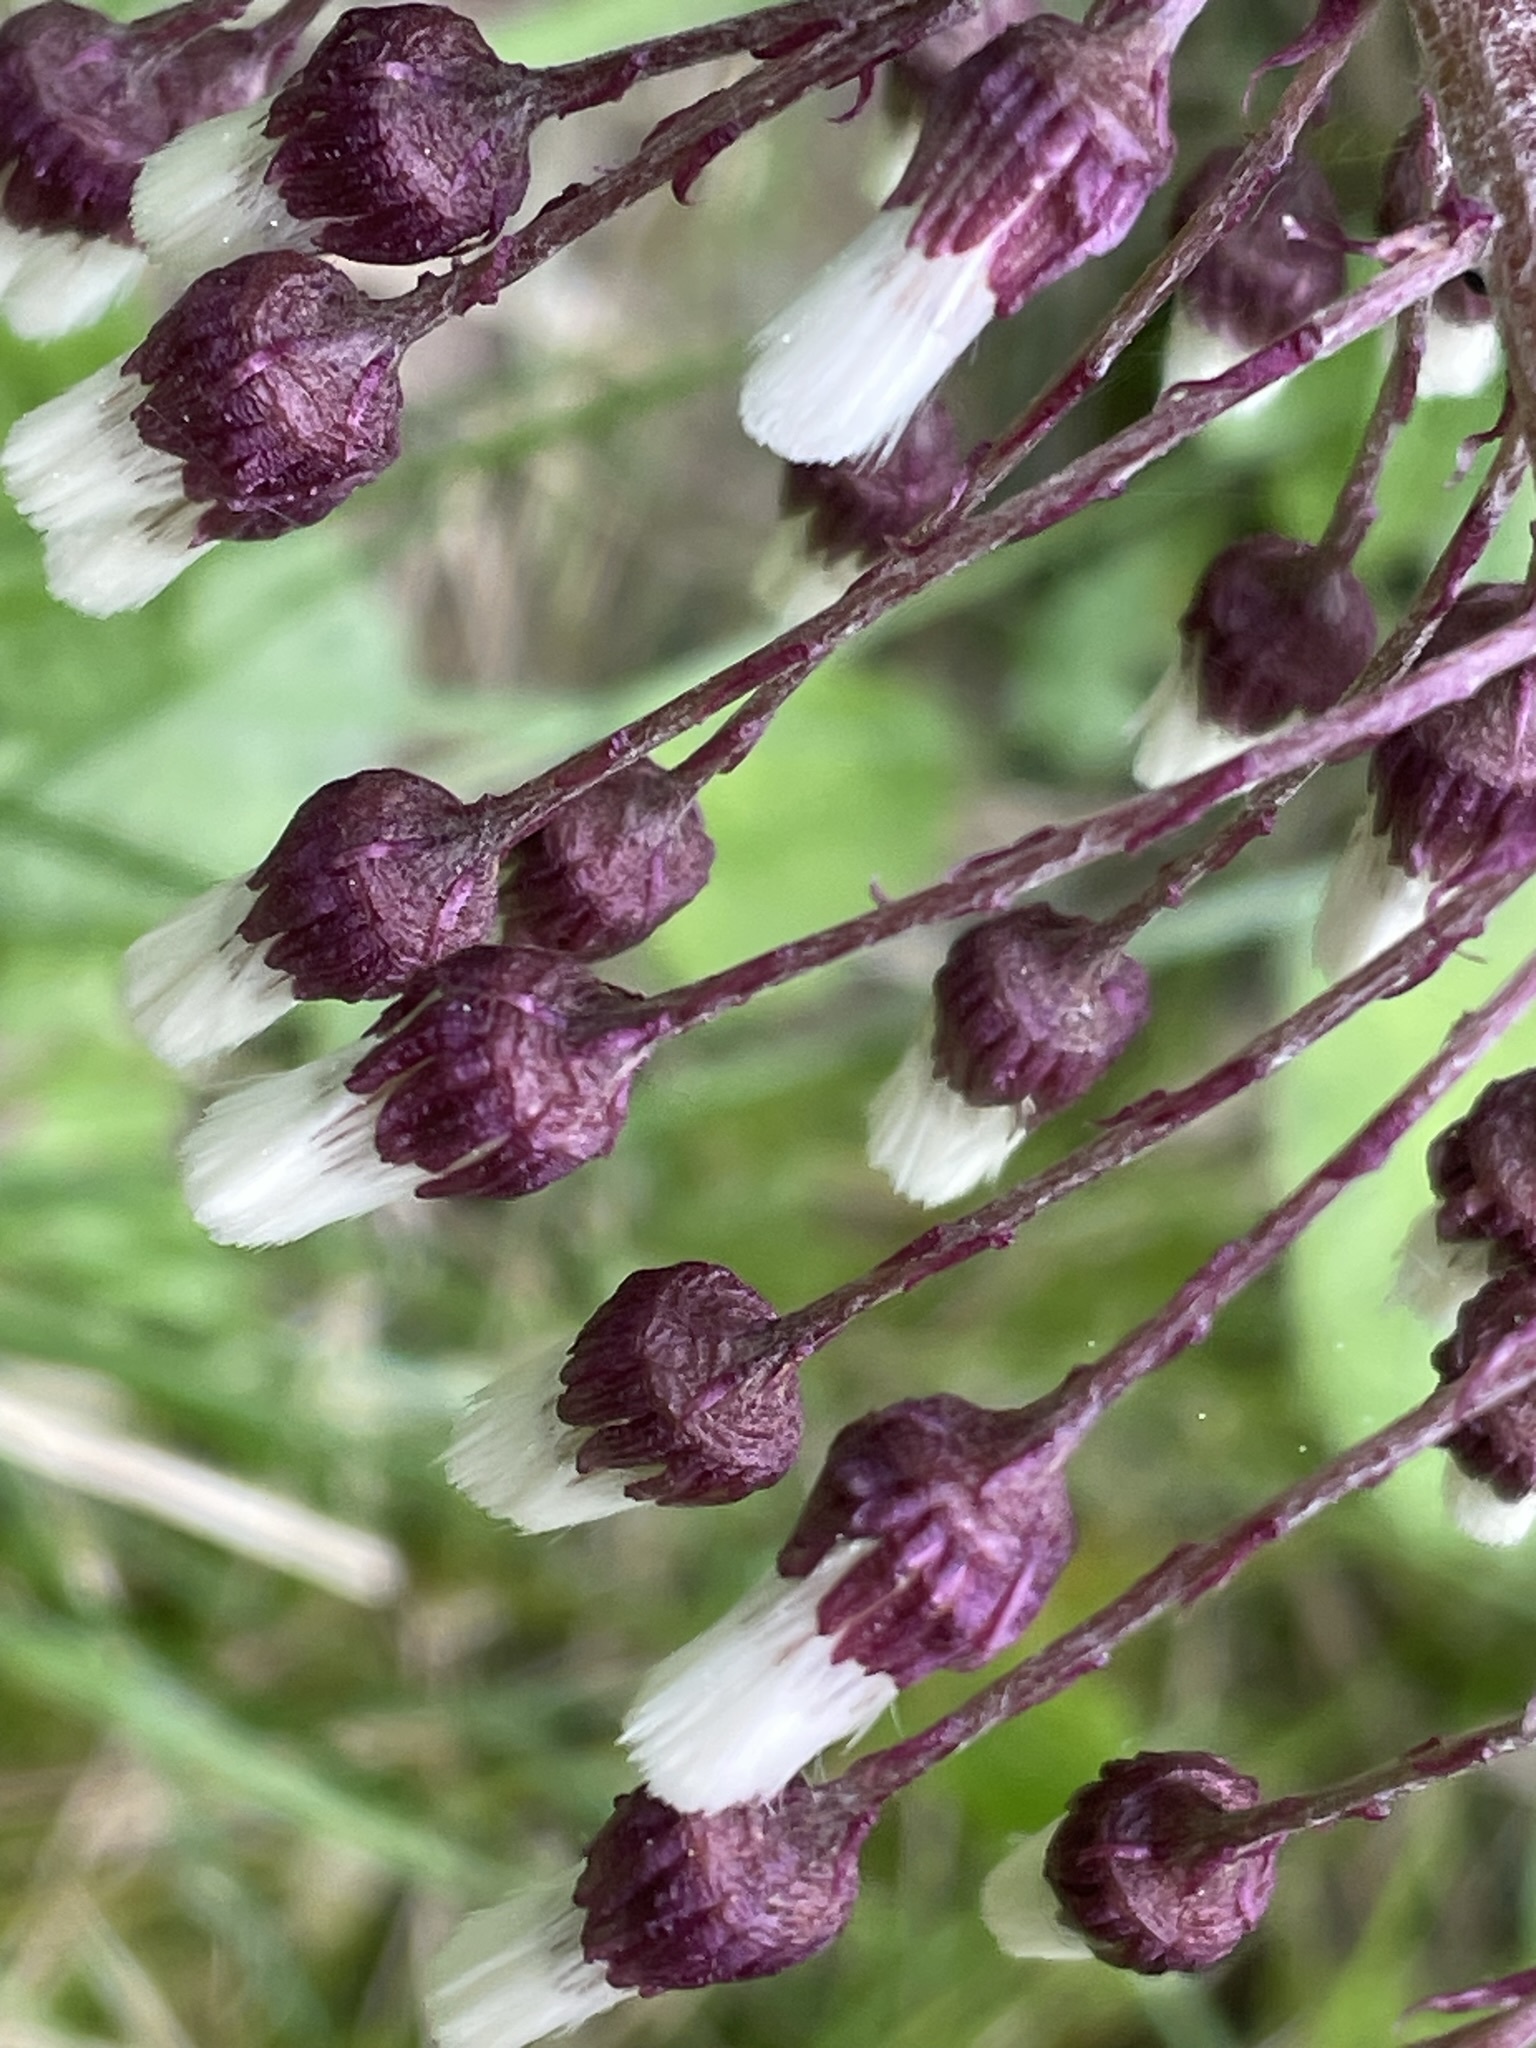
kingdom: Plantae
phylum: Tracheophyta
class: Magnoliopsida
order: Asterales
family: Asteraceae
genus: Petasites
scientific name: Petasites hybridus
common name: Butterbur
